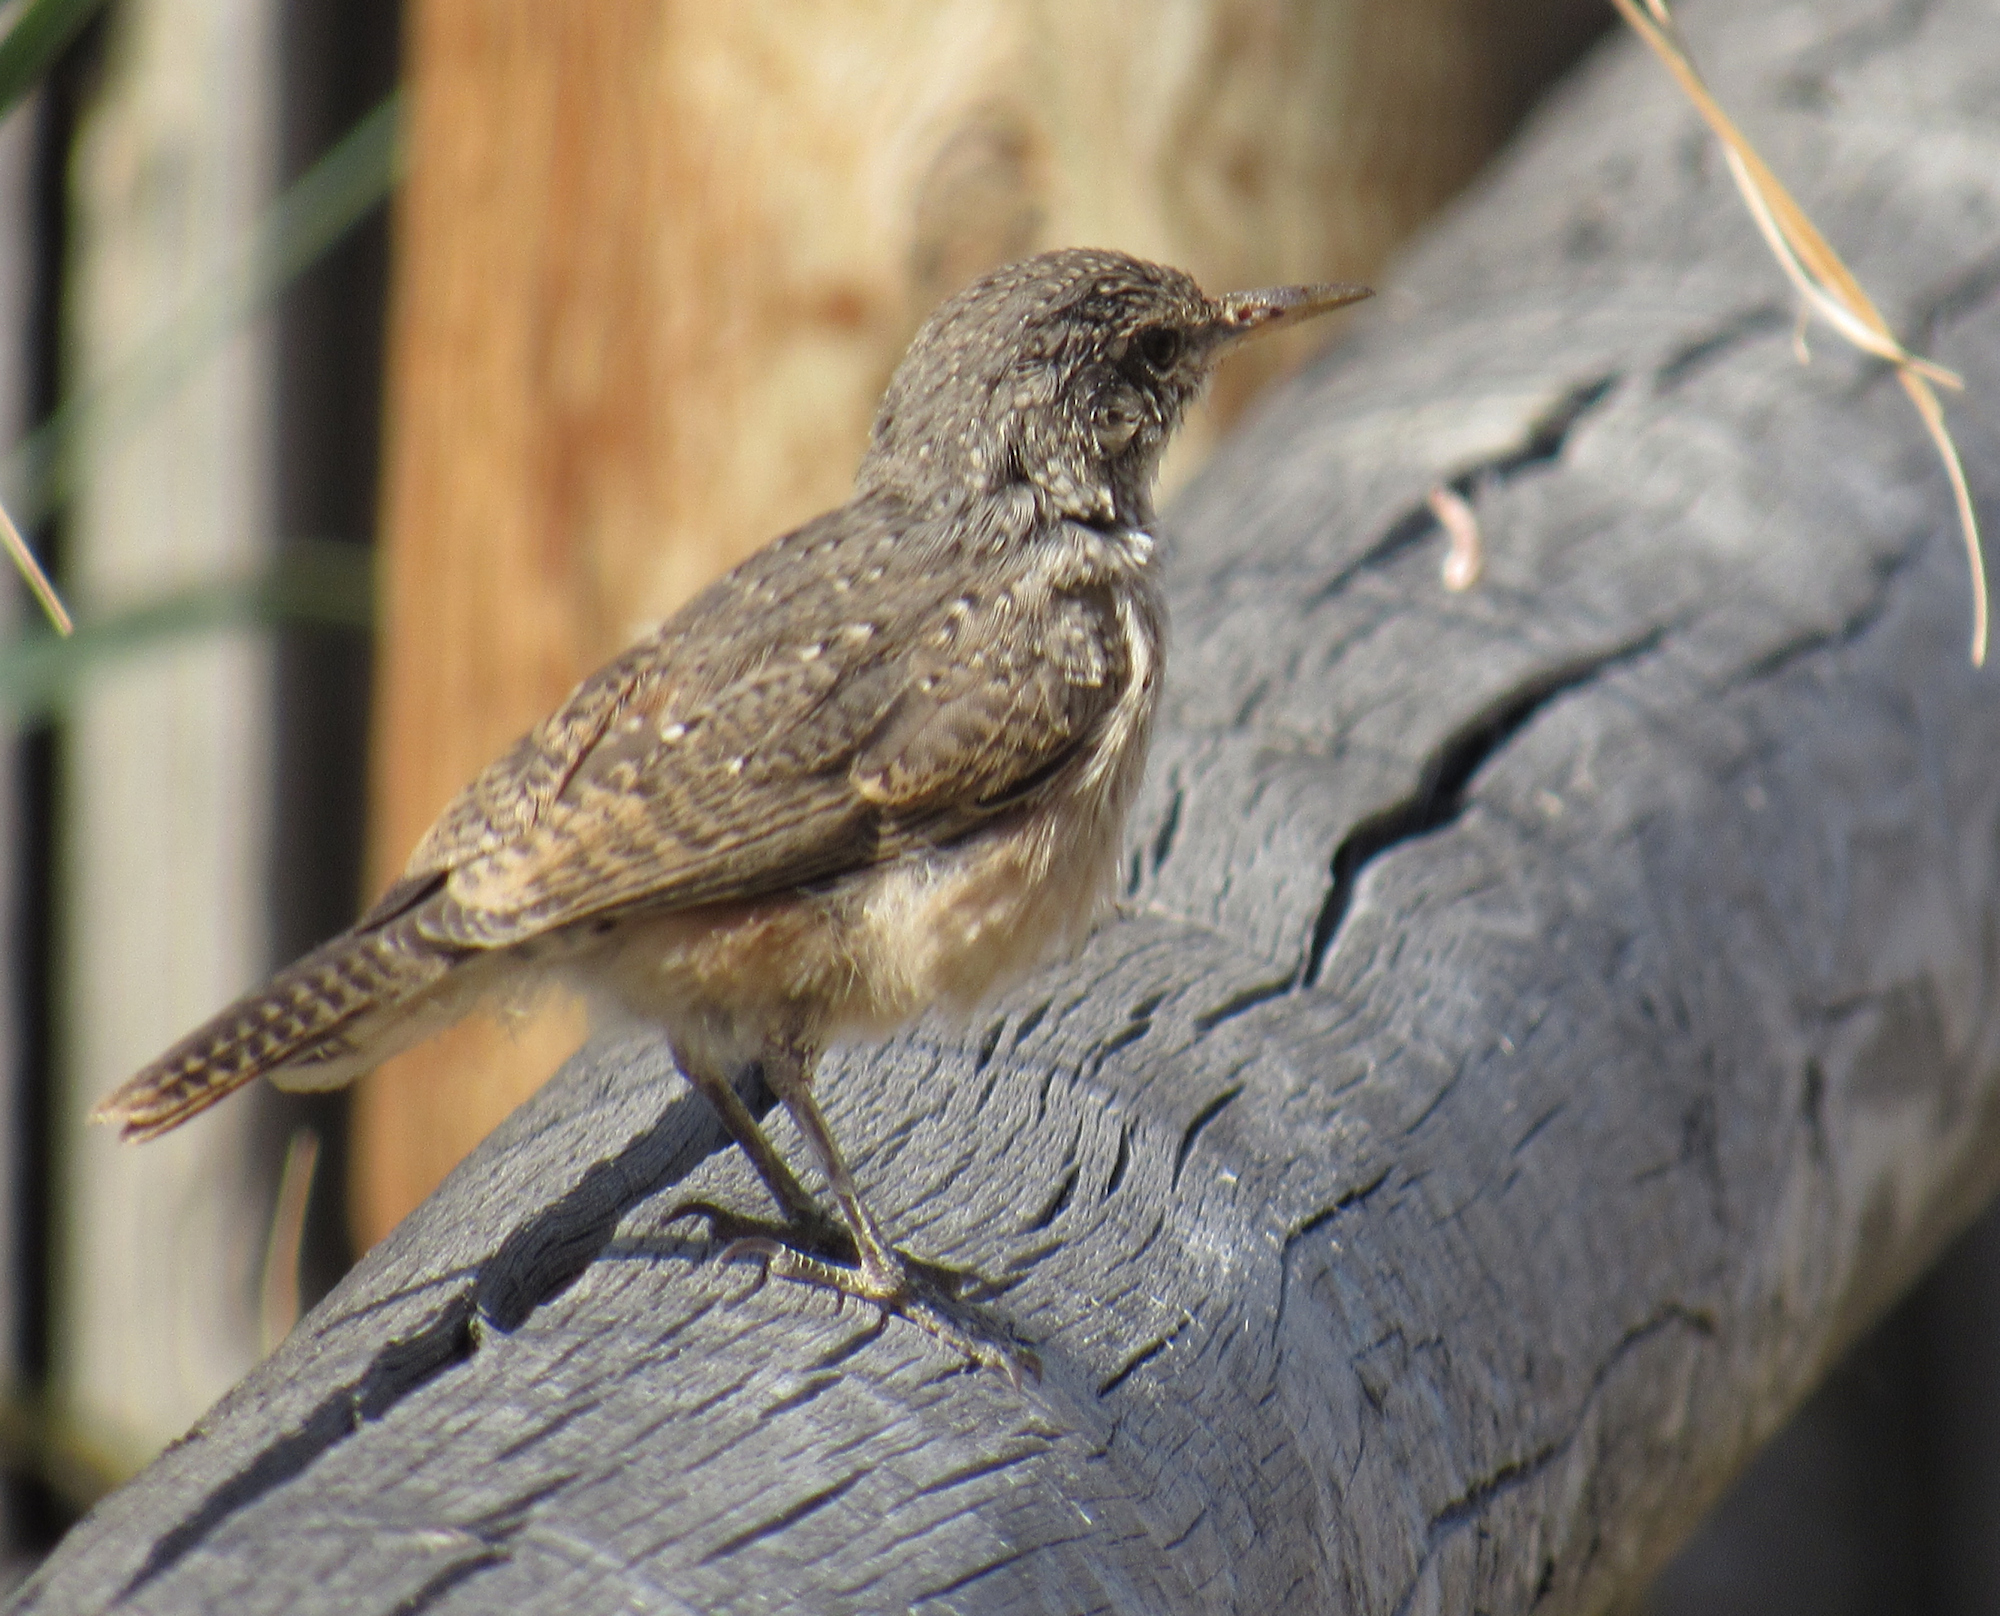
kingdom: Animalia
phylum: Chordata
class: Aves
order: Passeriformes
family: Troglodytidae
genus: Salpinctes
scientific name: Salpinctes obsoletus
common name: Rock wren
